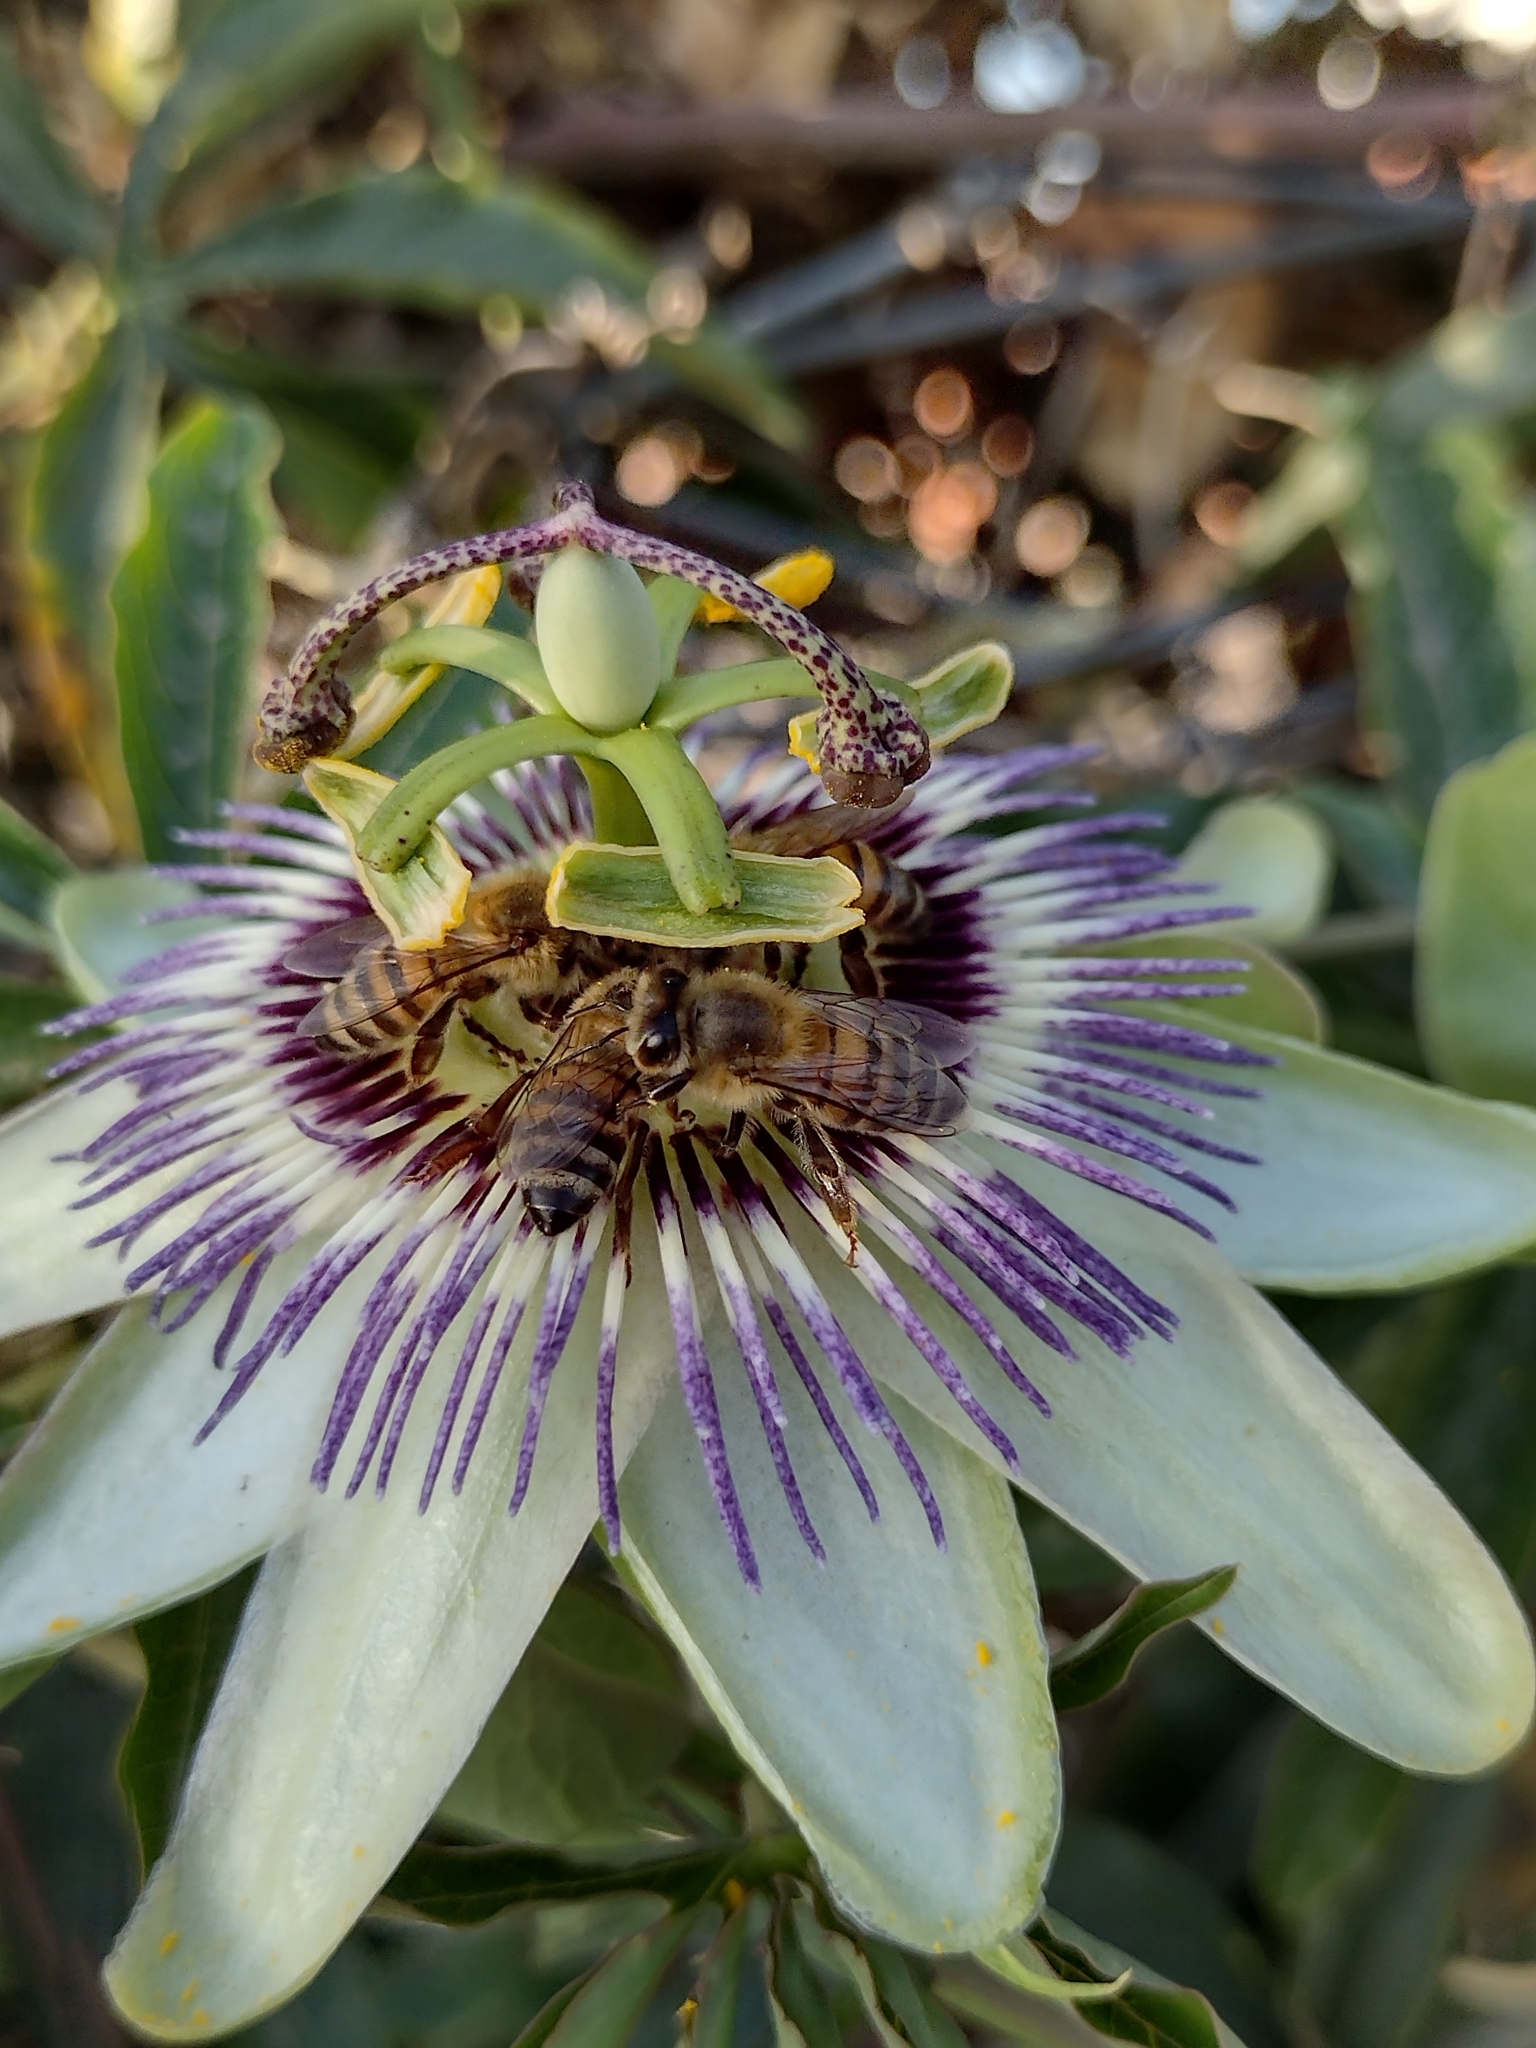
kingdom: Animalia
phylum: Arthropoda
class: Insecta
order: Hymenoptera
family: Apidae
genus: Apis
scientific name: Apis mellifera
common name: Honey bee
